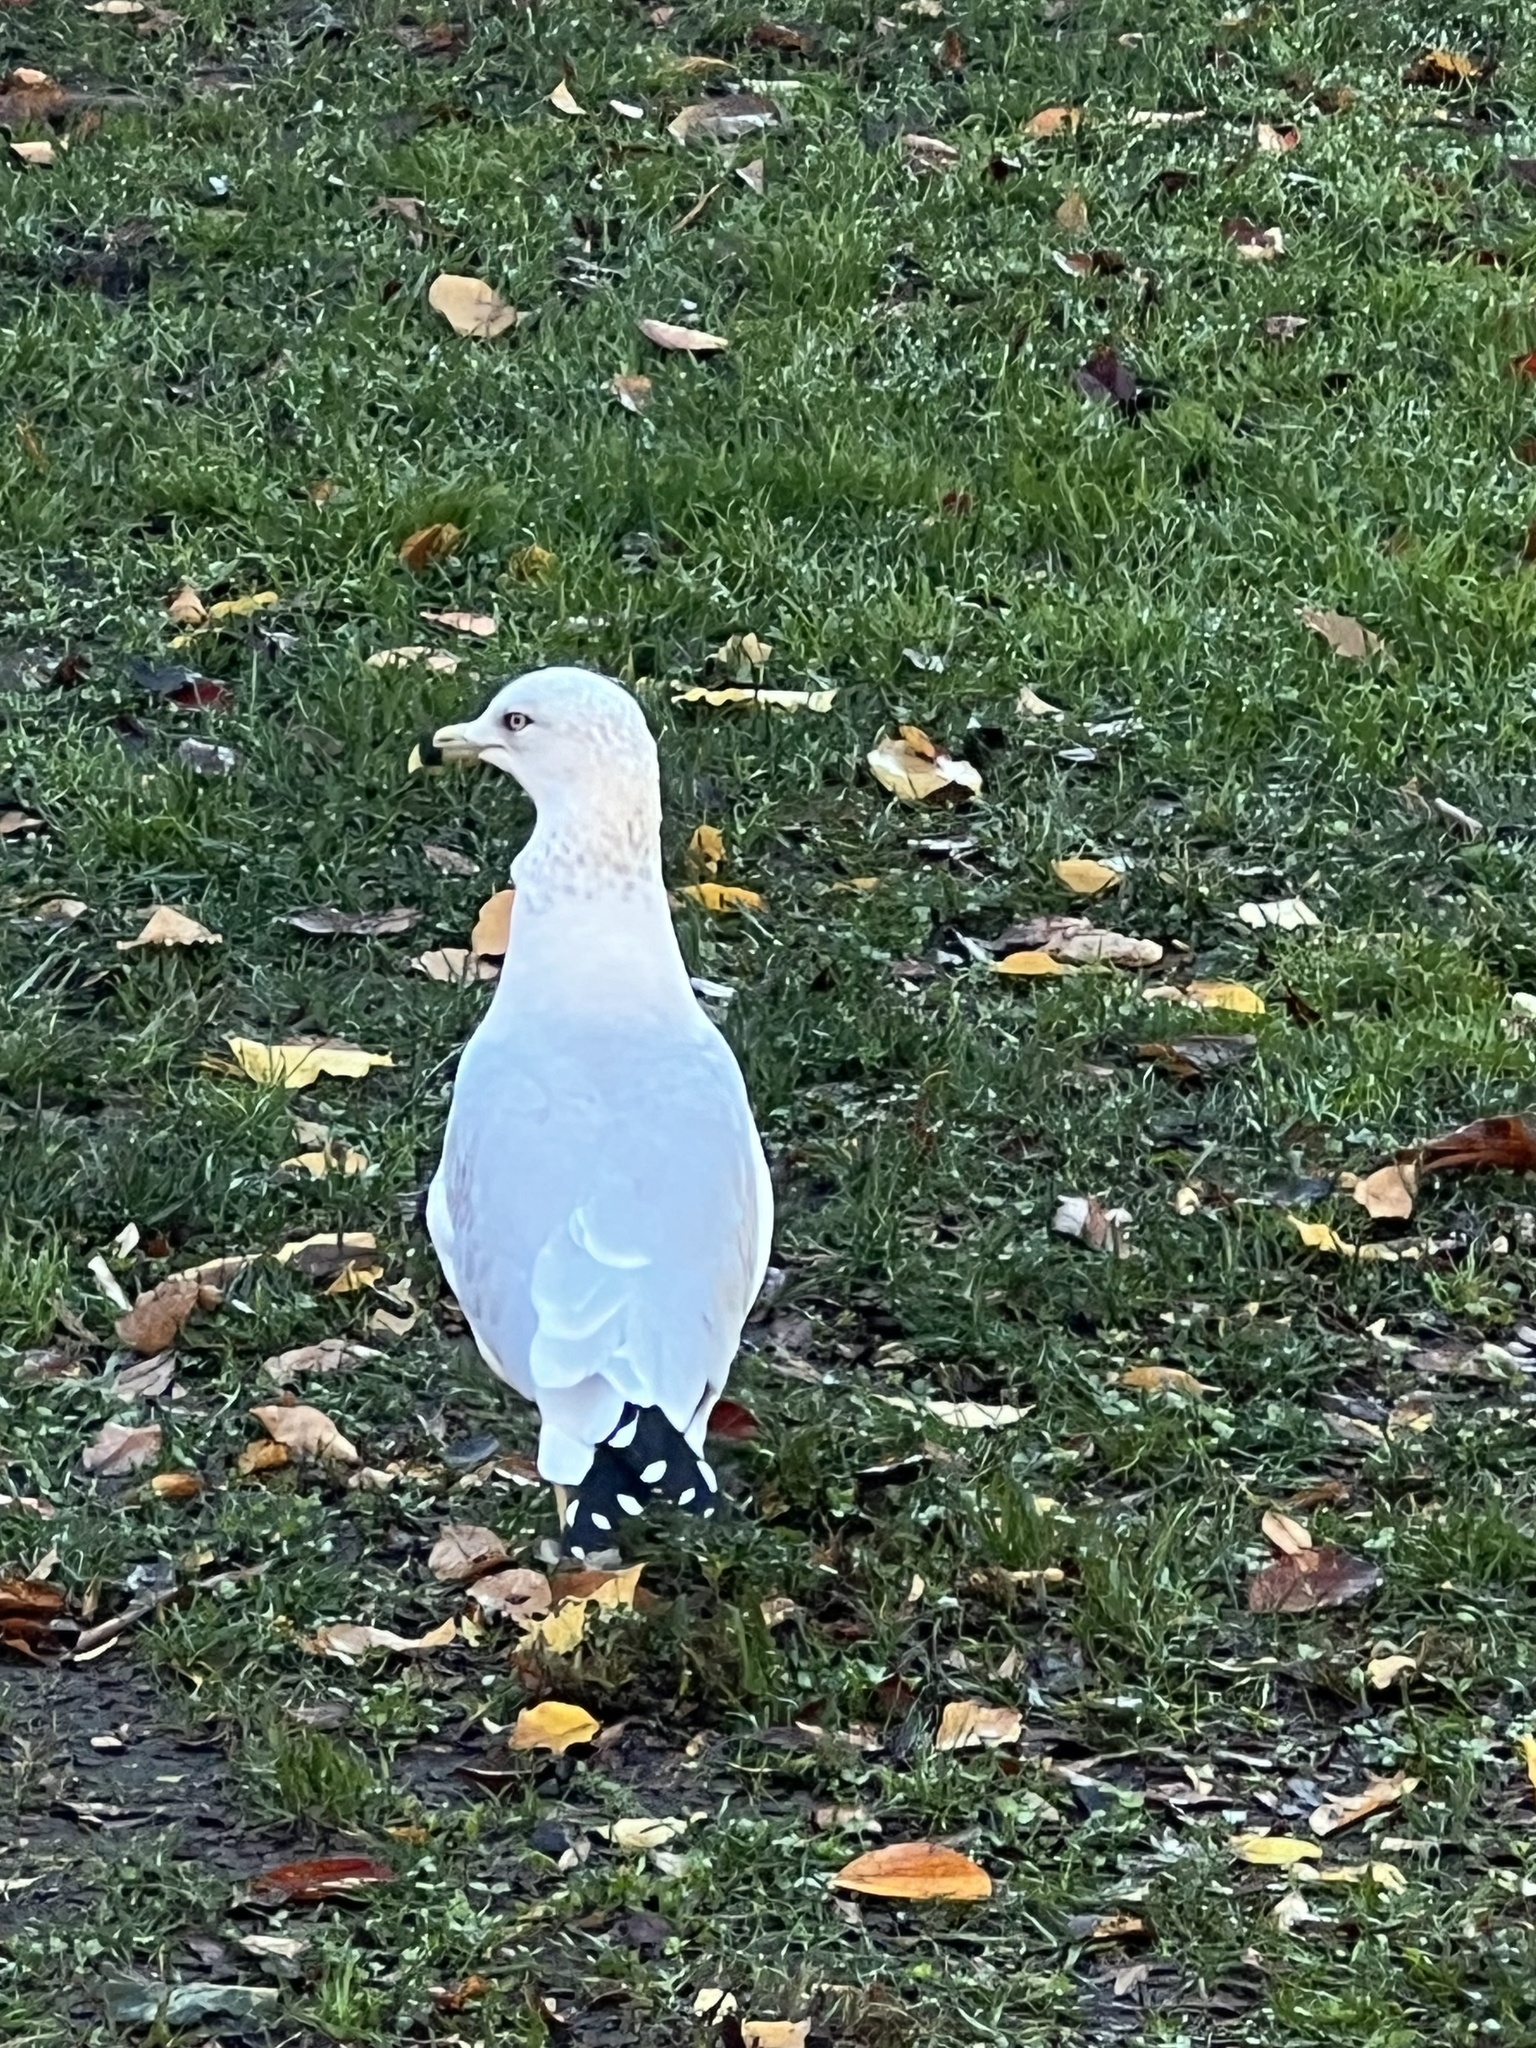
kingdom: Animalia
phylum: Chordata
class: Aves
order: Charadriiformes
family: Laridae
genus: Larus
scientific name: Larus delawarensis
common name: Ring-billed gull
